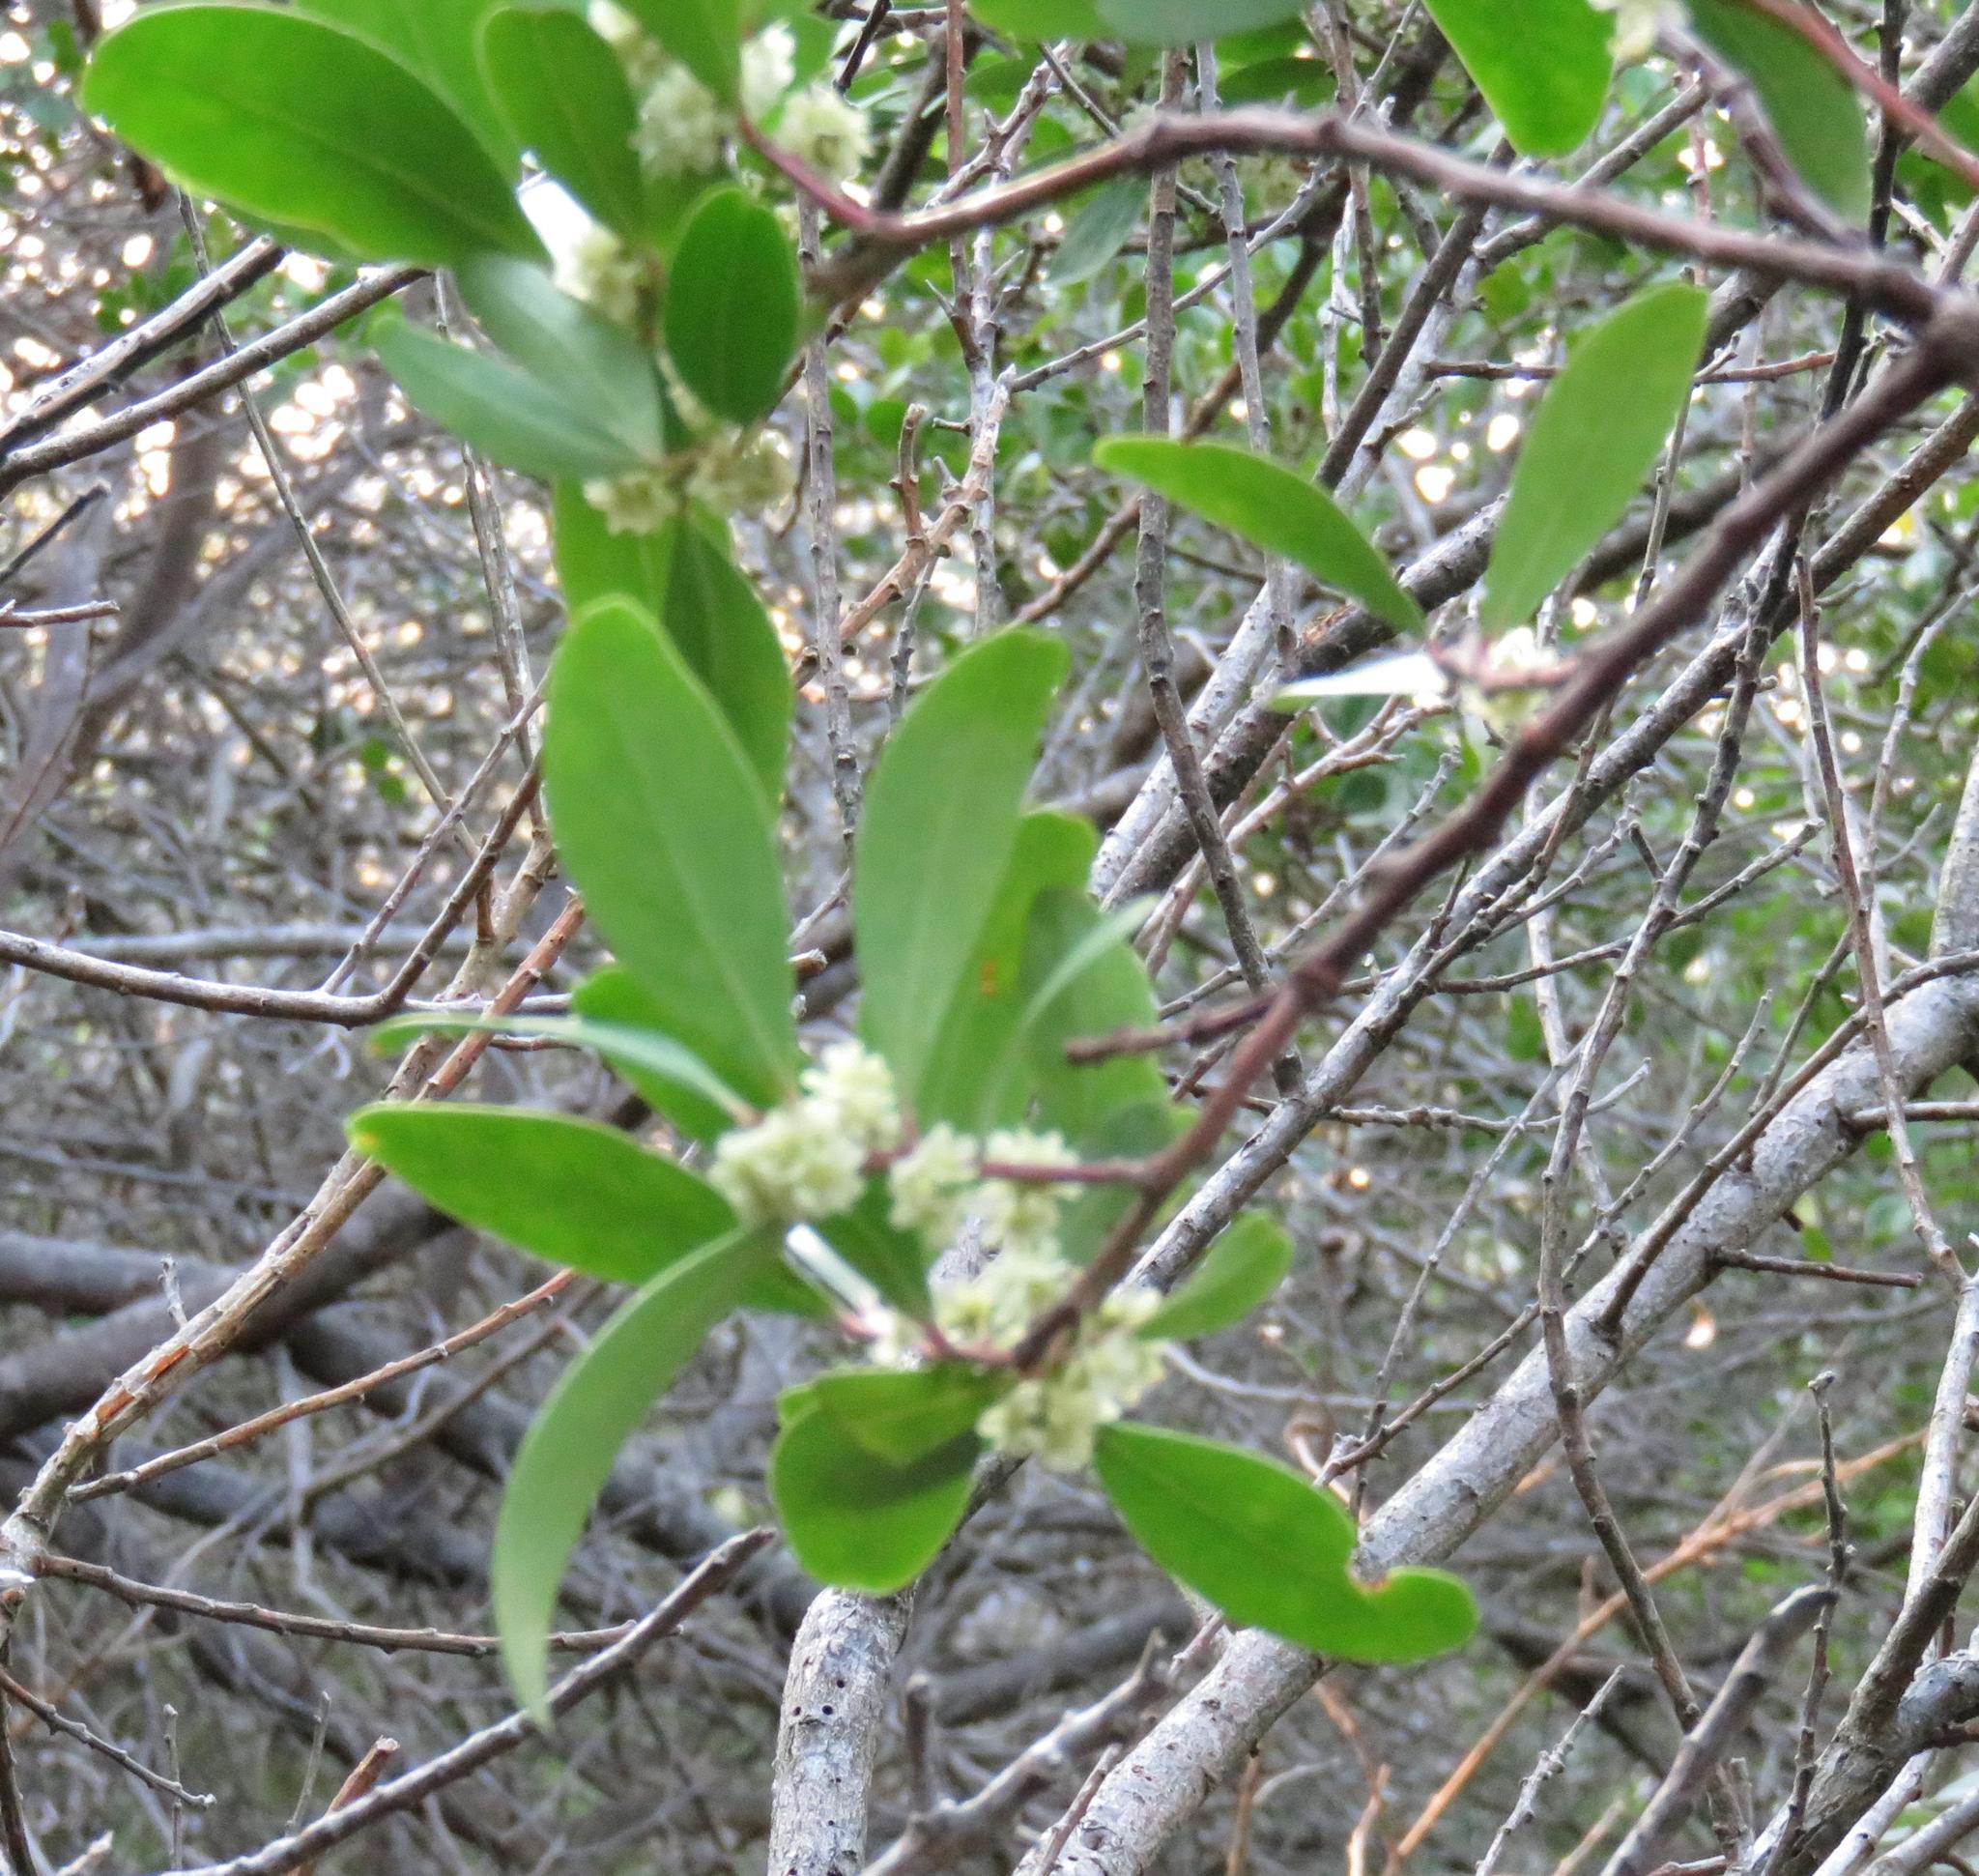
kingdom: Plantae
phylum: Tracheophyta
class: Magnoliopsida
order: Celastrales
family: Celastraceae
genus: Gymnosporia
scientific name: Gymnosporia laurina
